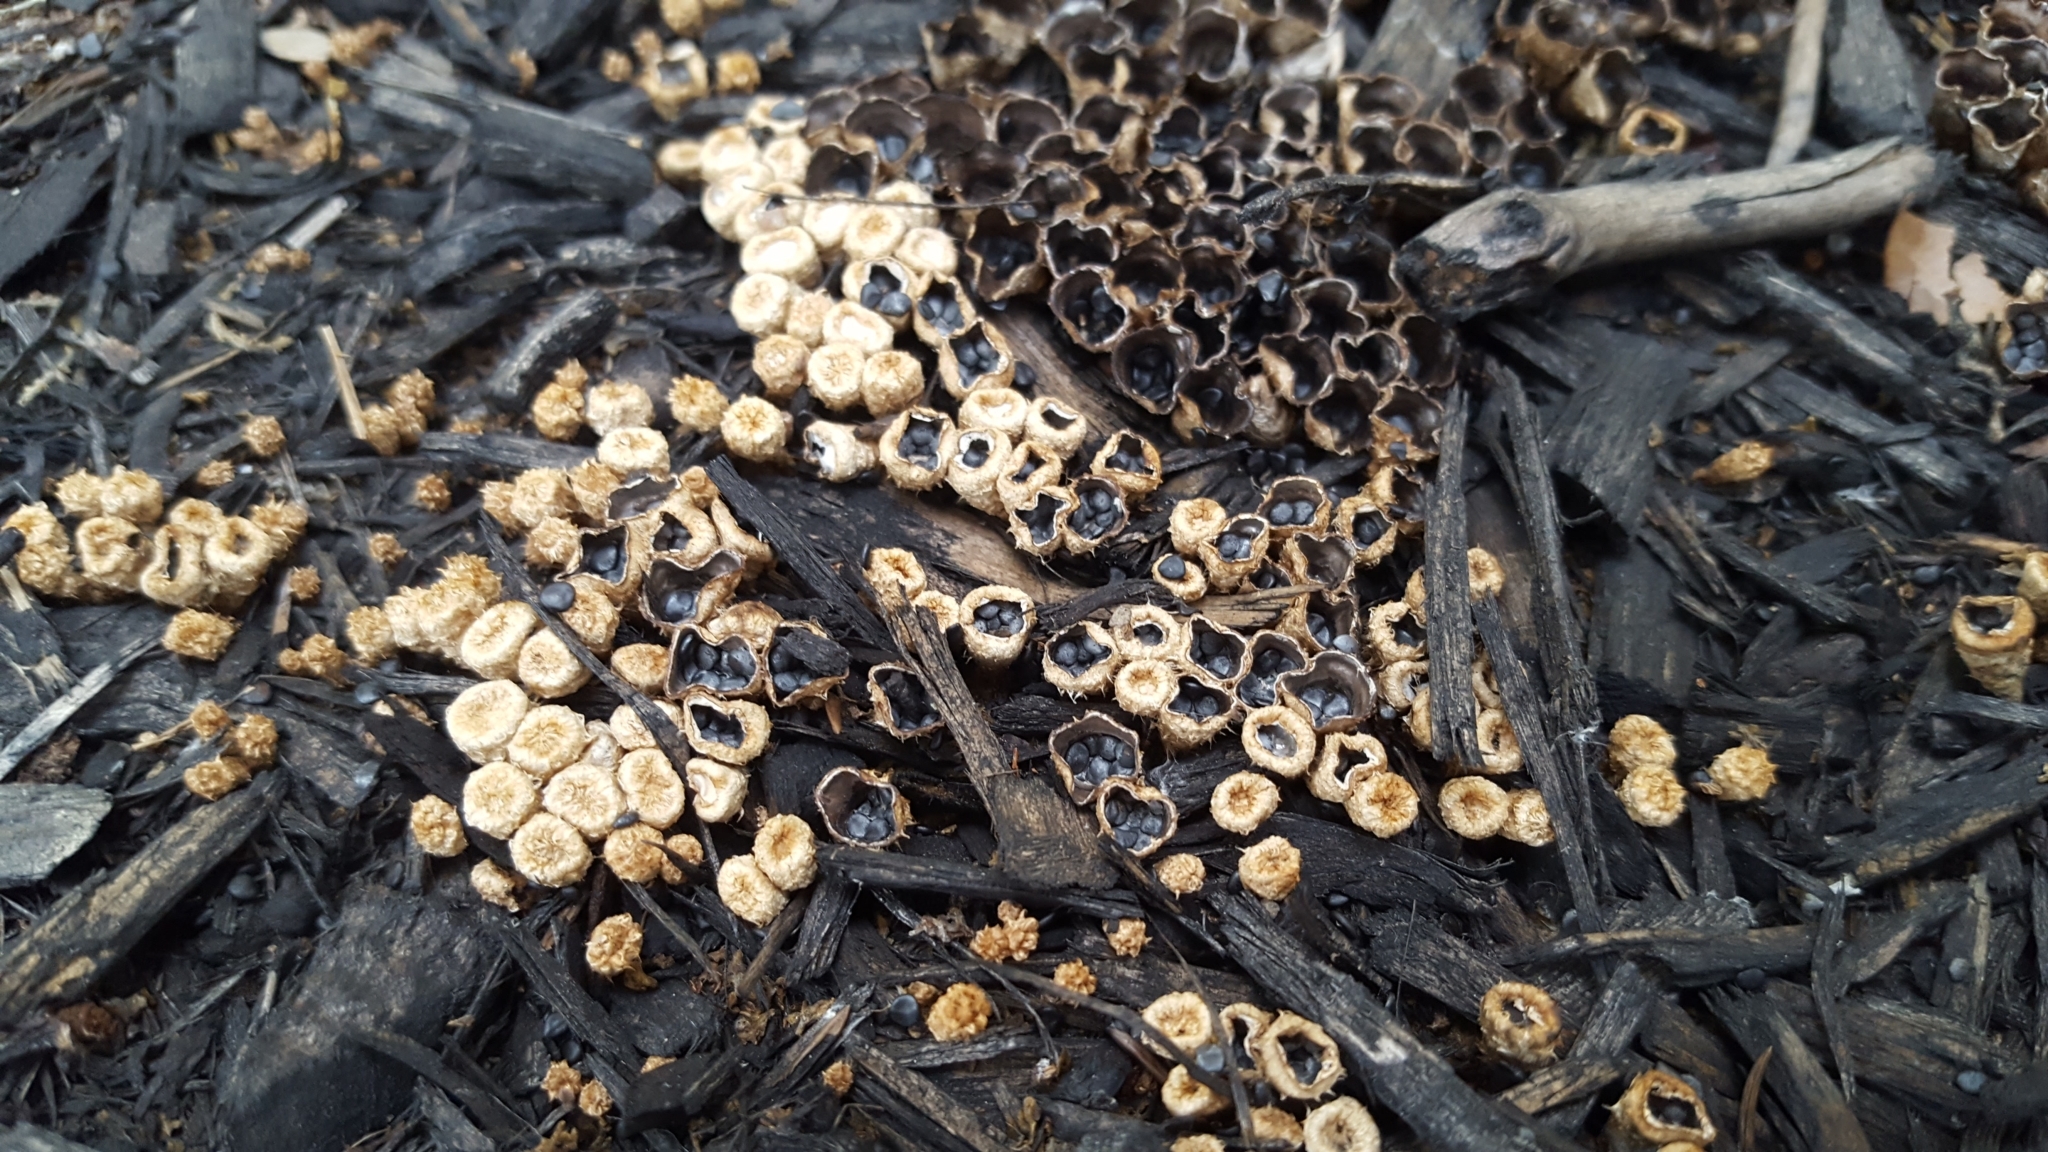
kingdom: Fungi
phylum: Basidiomycota
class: Agaricomycetes
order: Agaricales
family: Agaricaceae
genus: Cyathus
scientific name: Cyathus stercoreus
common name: Dung bird's nest
